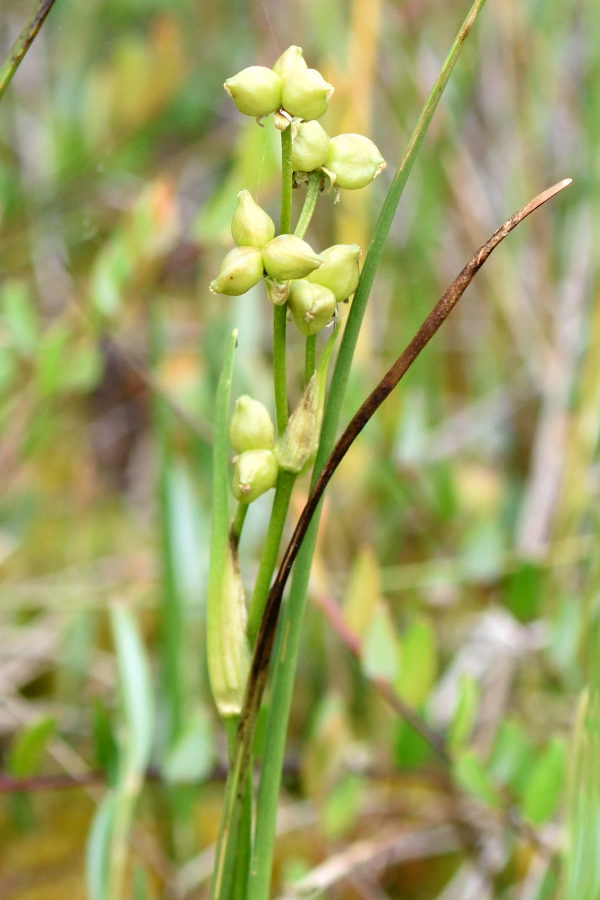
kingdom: Plantae
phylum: Tracheophyta
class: Liliopsida
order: Alismatales
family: Scheuchzeriaceae
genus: Scheuchzeria
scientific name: Scheuchzeria palustris
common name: Rannoch-rush
